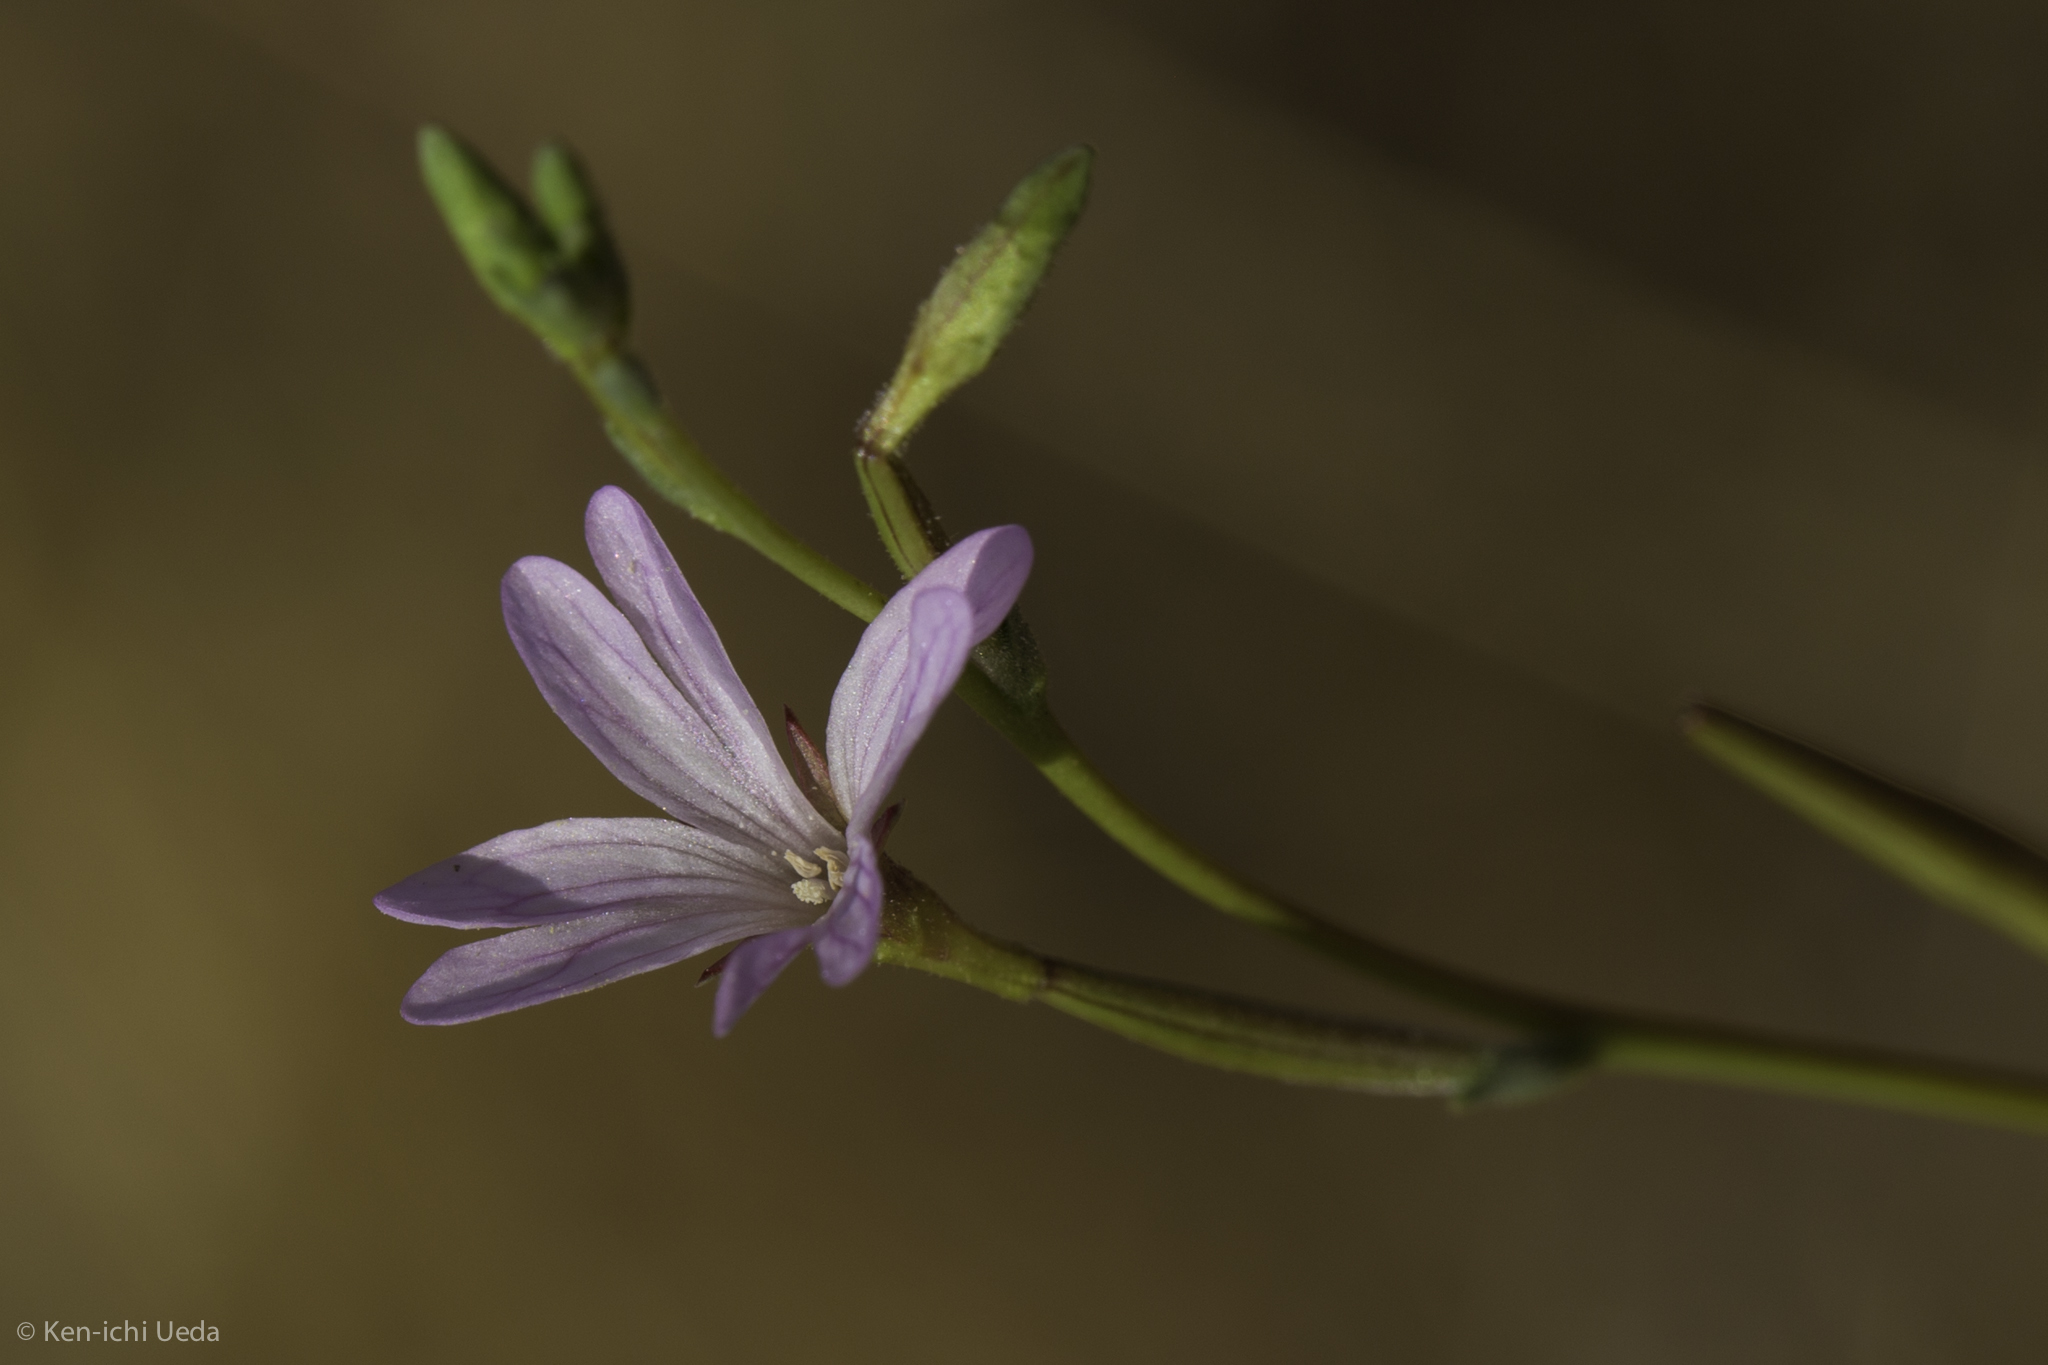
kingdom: Plantae
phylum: Tracheophyta
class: Magnoliopsida
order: Myrtales
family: Onagraceae
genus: Epilobium
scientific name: Epilobium brachycarpum
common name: Annual willowherb
